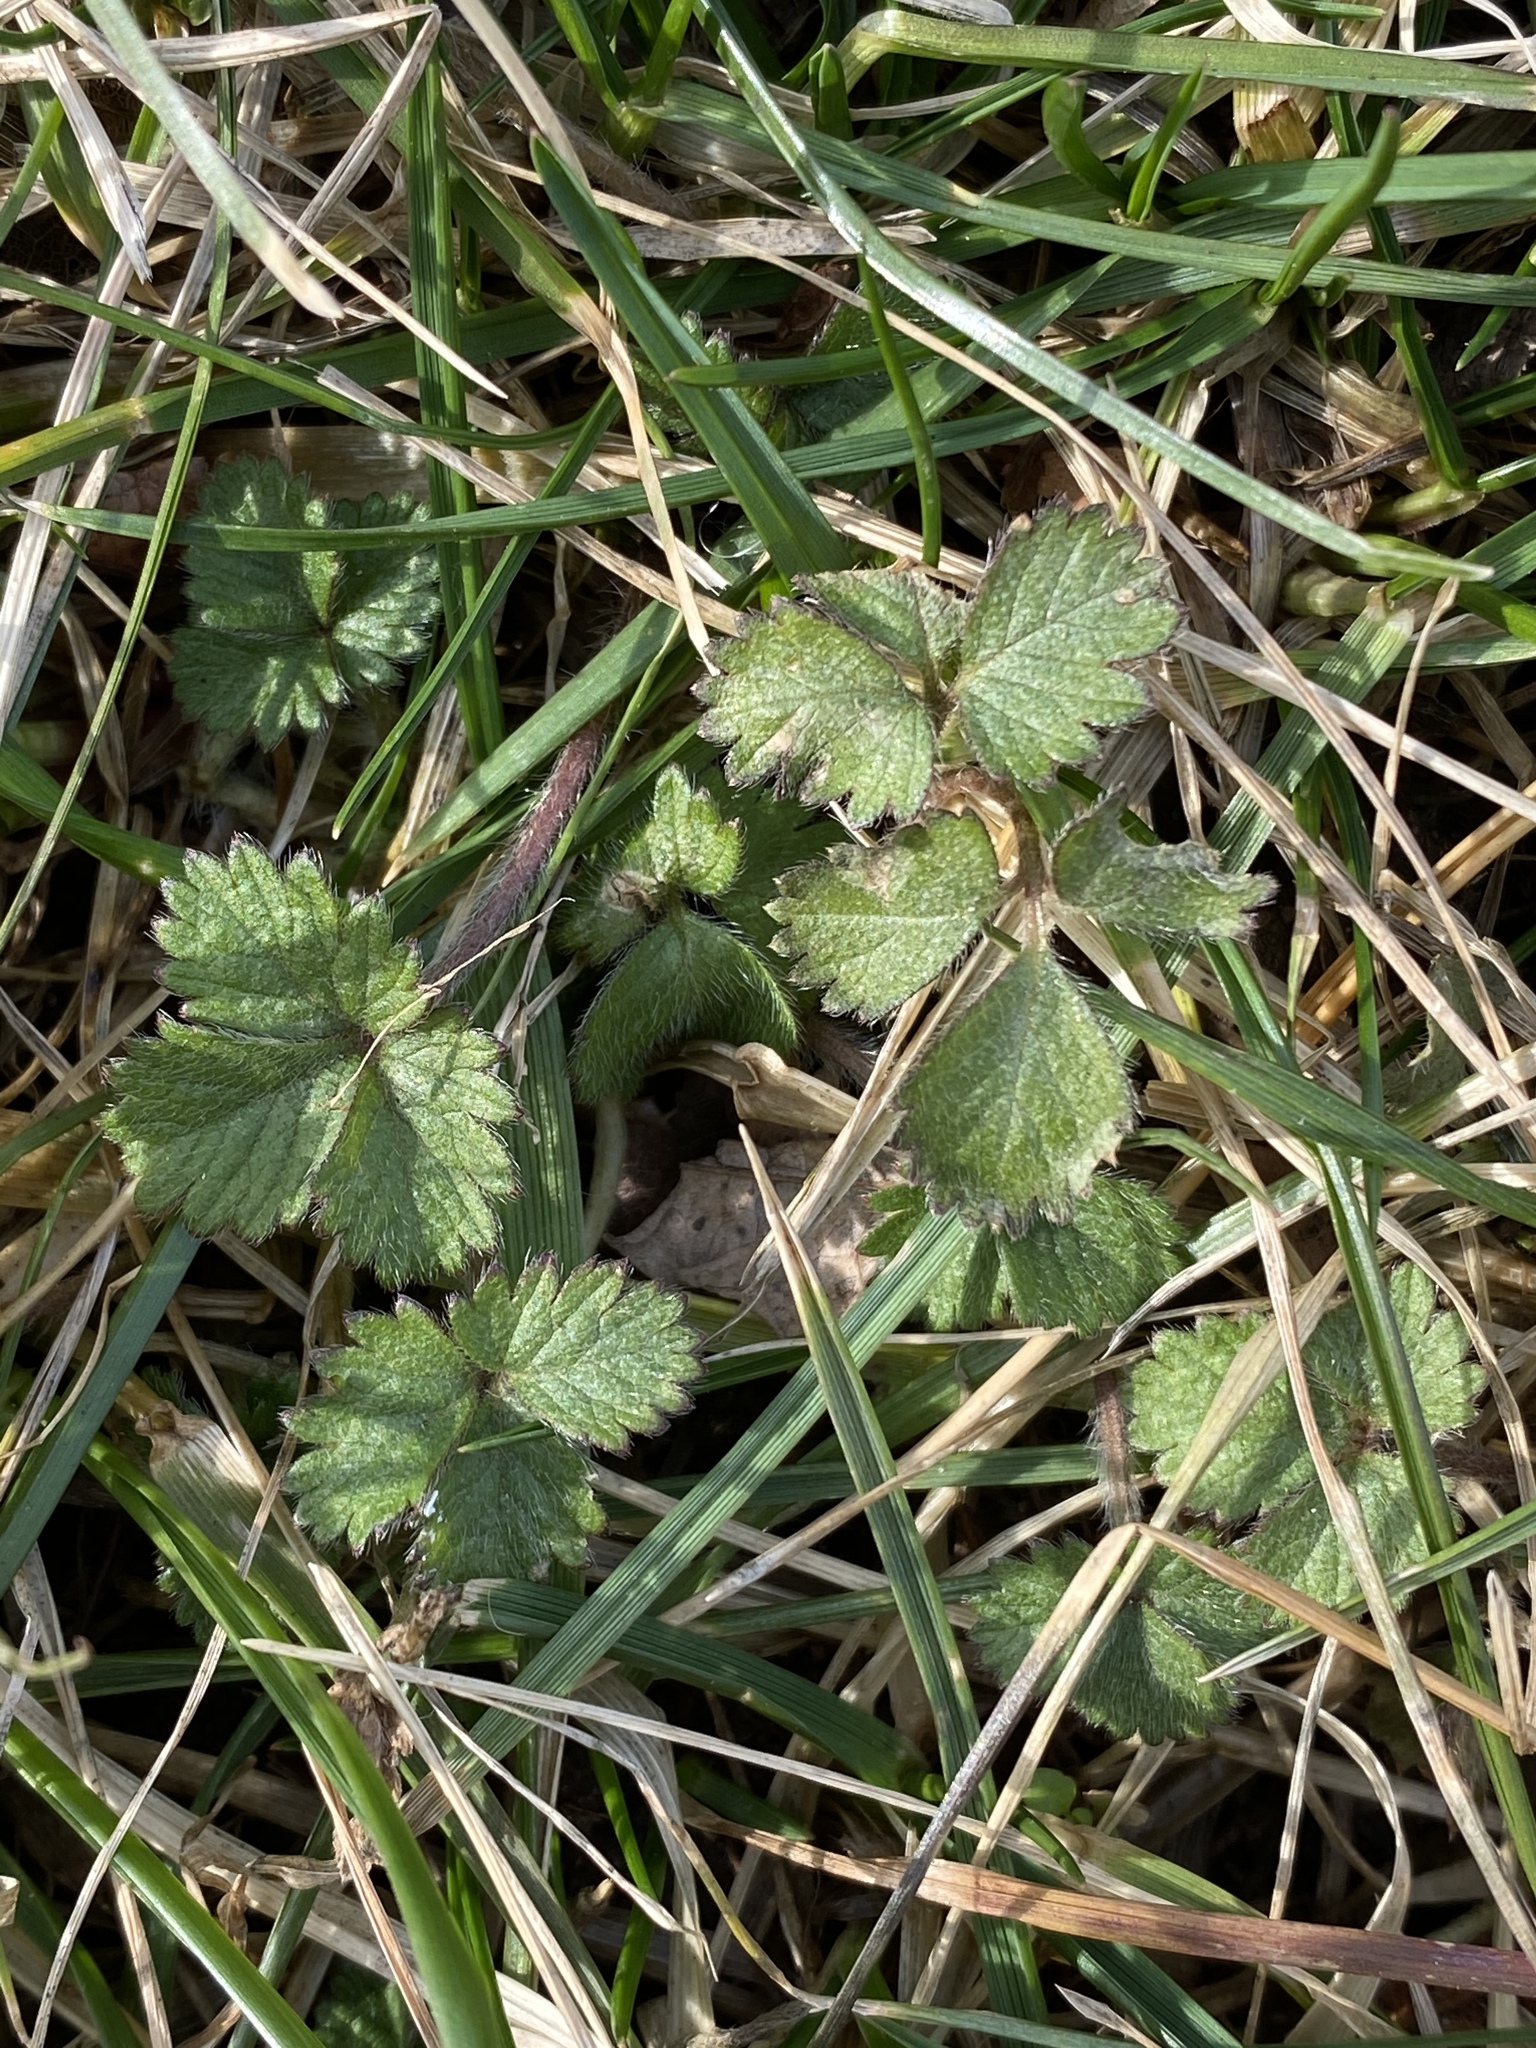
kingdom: Plantae
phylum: Tracheophyta
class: Magnoliopsida
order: Rosales
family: Rosaceae
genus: Potentilla
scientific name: Potentilla indica
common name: Yellow-flowered strawberry
